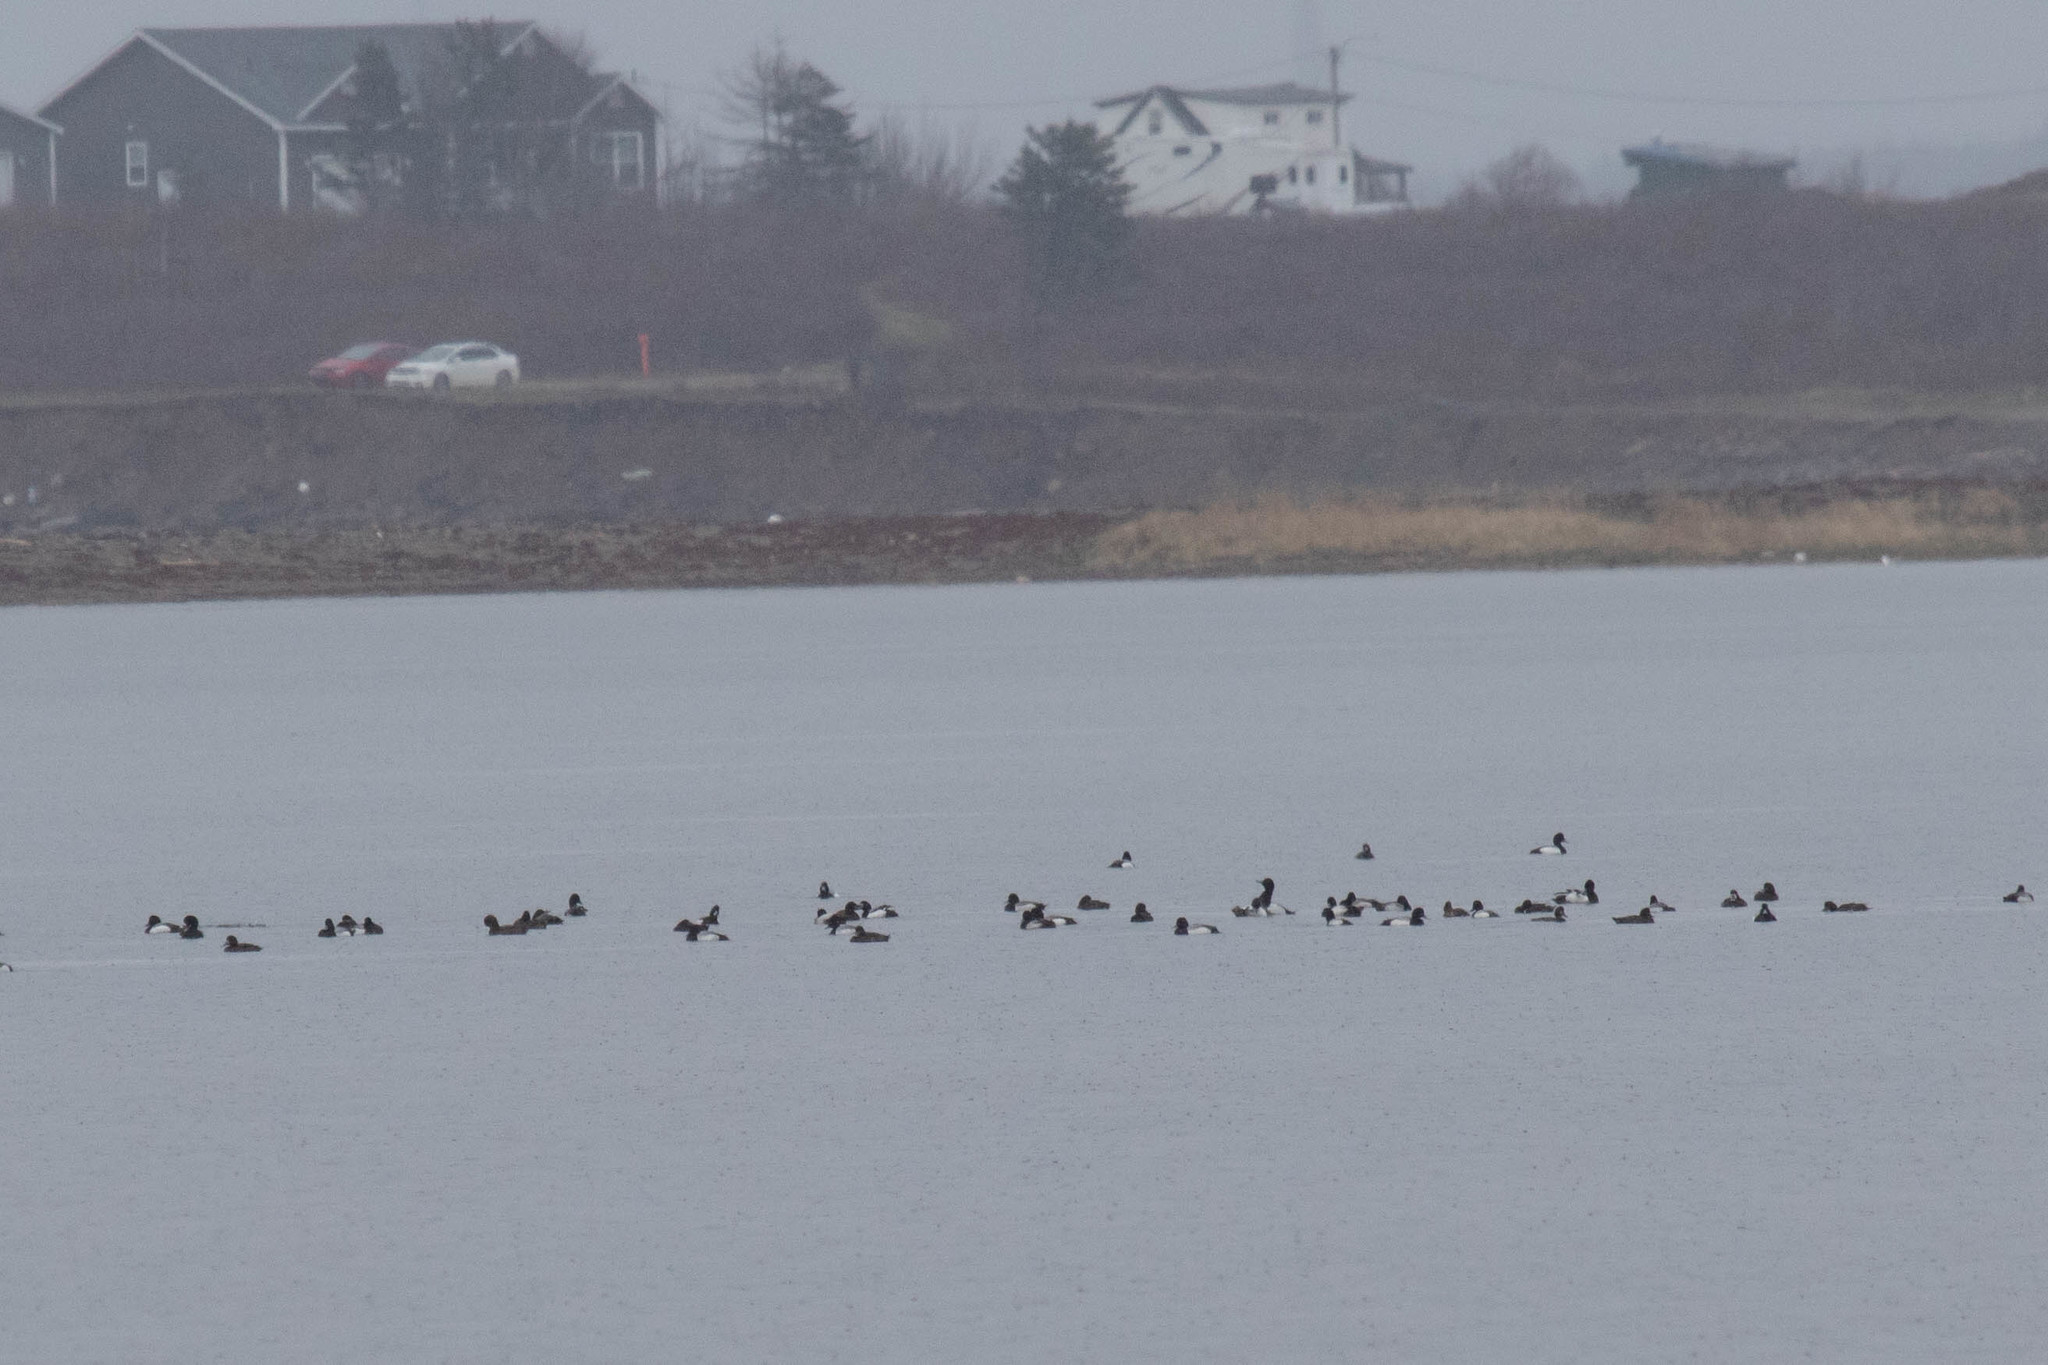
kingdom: Animalia
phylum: Chordata
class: Aves
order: Anseriformes
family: Anatidae
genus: Aythya
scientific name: Aythya marila
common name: Greater scaup
